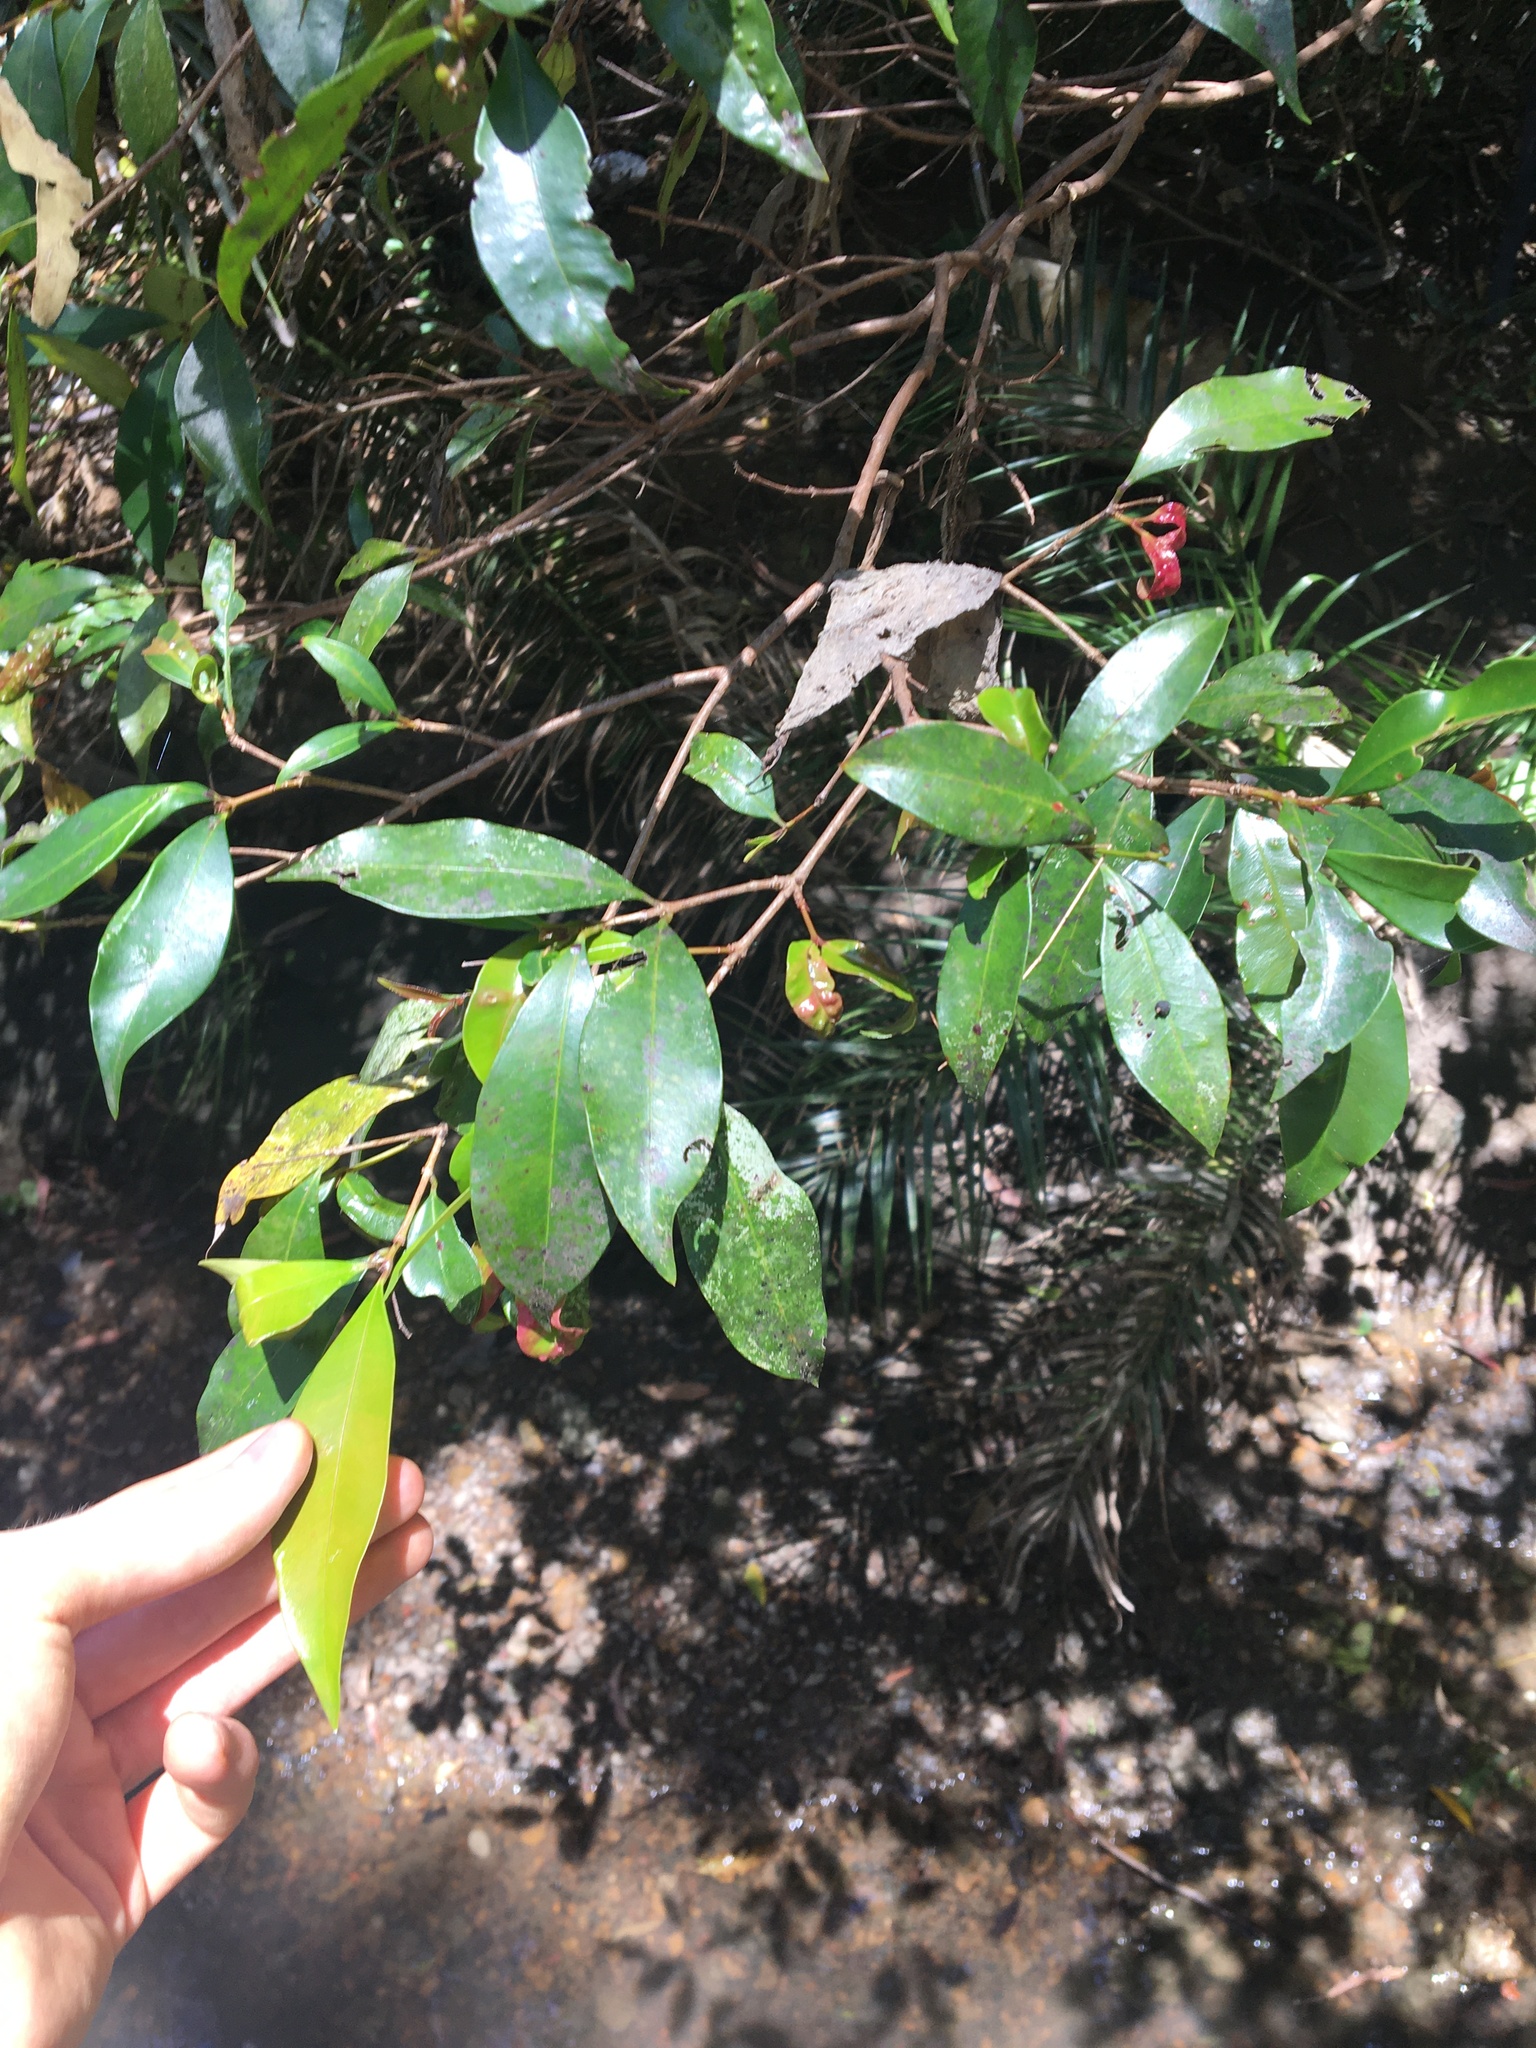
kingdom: Plantae
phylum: Tracheophyta
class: Magnoliopsida
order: Myrtales
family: Myrtaceae
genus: Syzygium
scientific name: Syzygium oleosum
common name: Oily satin-ash
